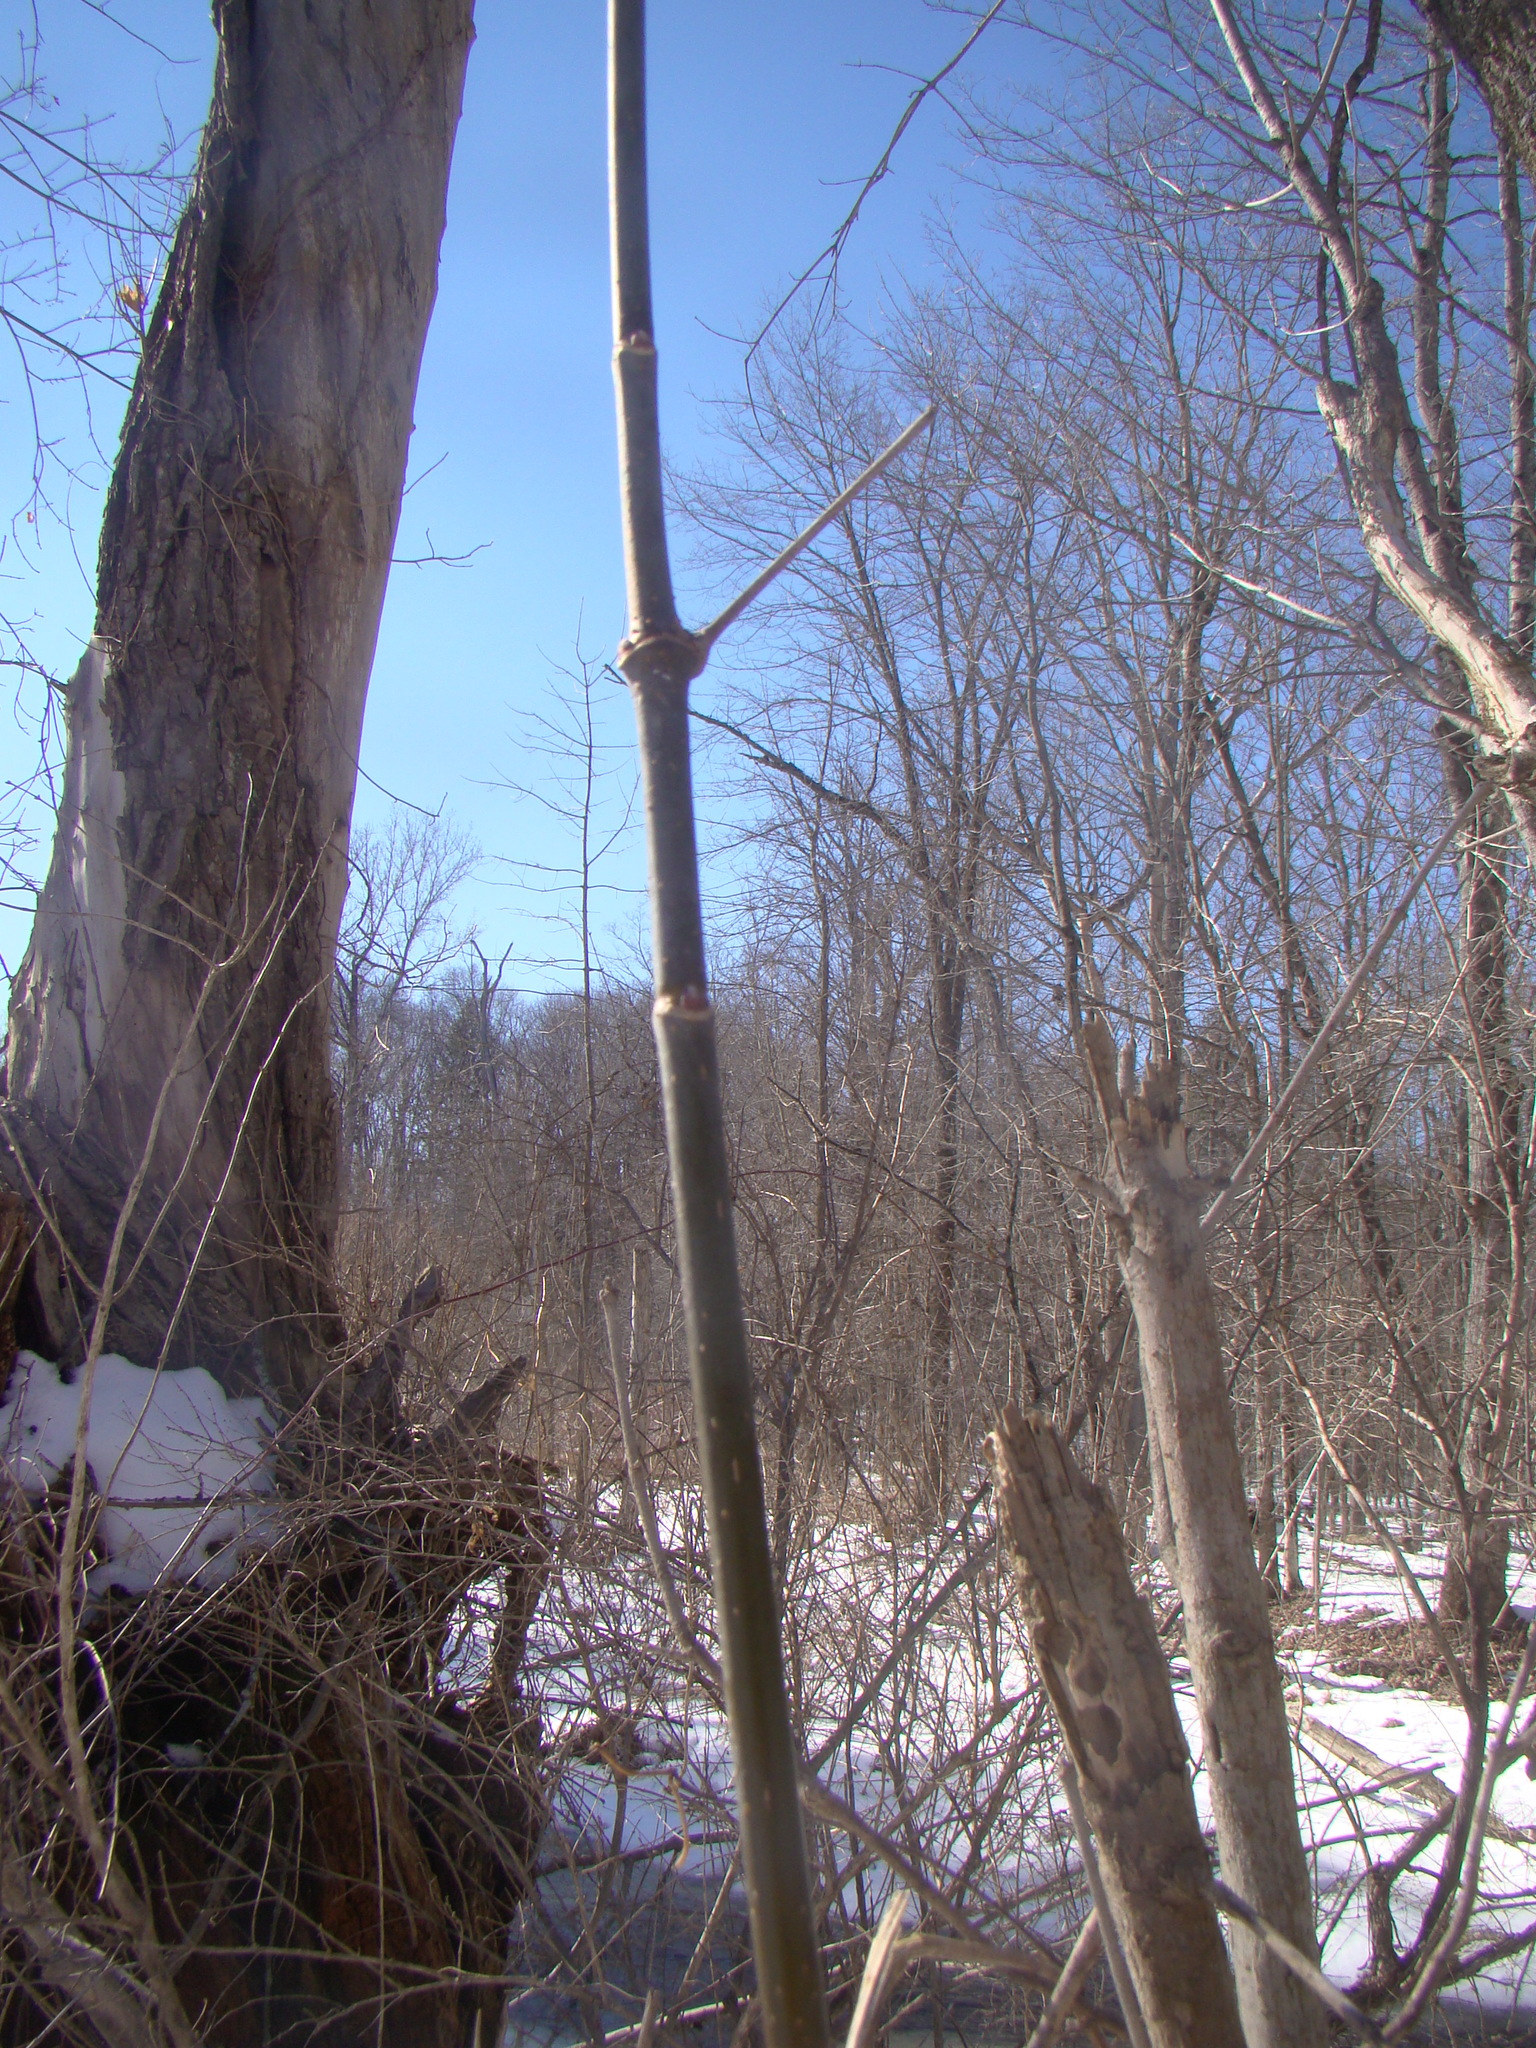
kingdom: Plantae
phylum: Tracheophyta
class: Magnoliopsida
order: Sapindales
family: Sapindaceae
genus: Acer
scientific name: Acer negundo
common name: Ashleaf maple
